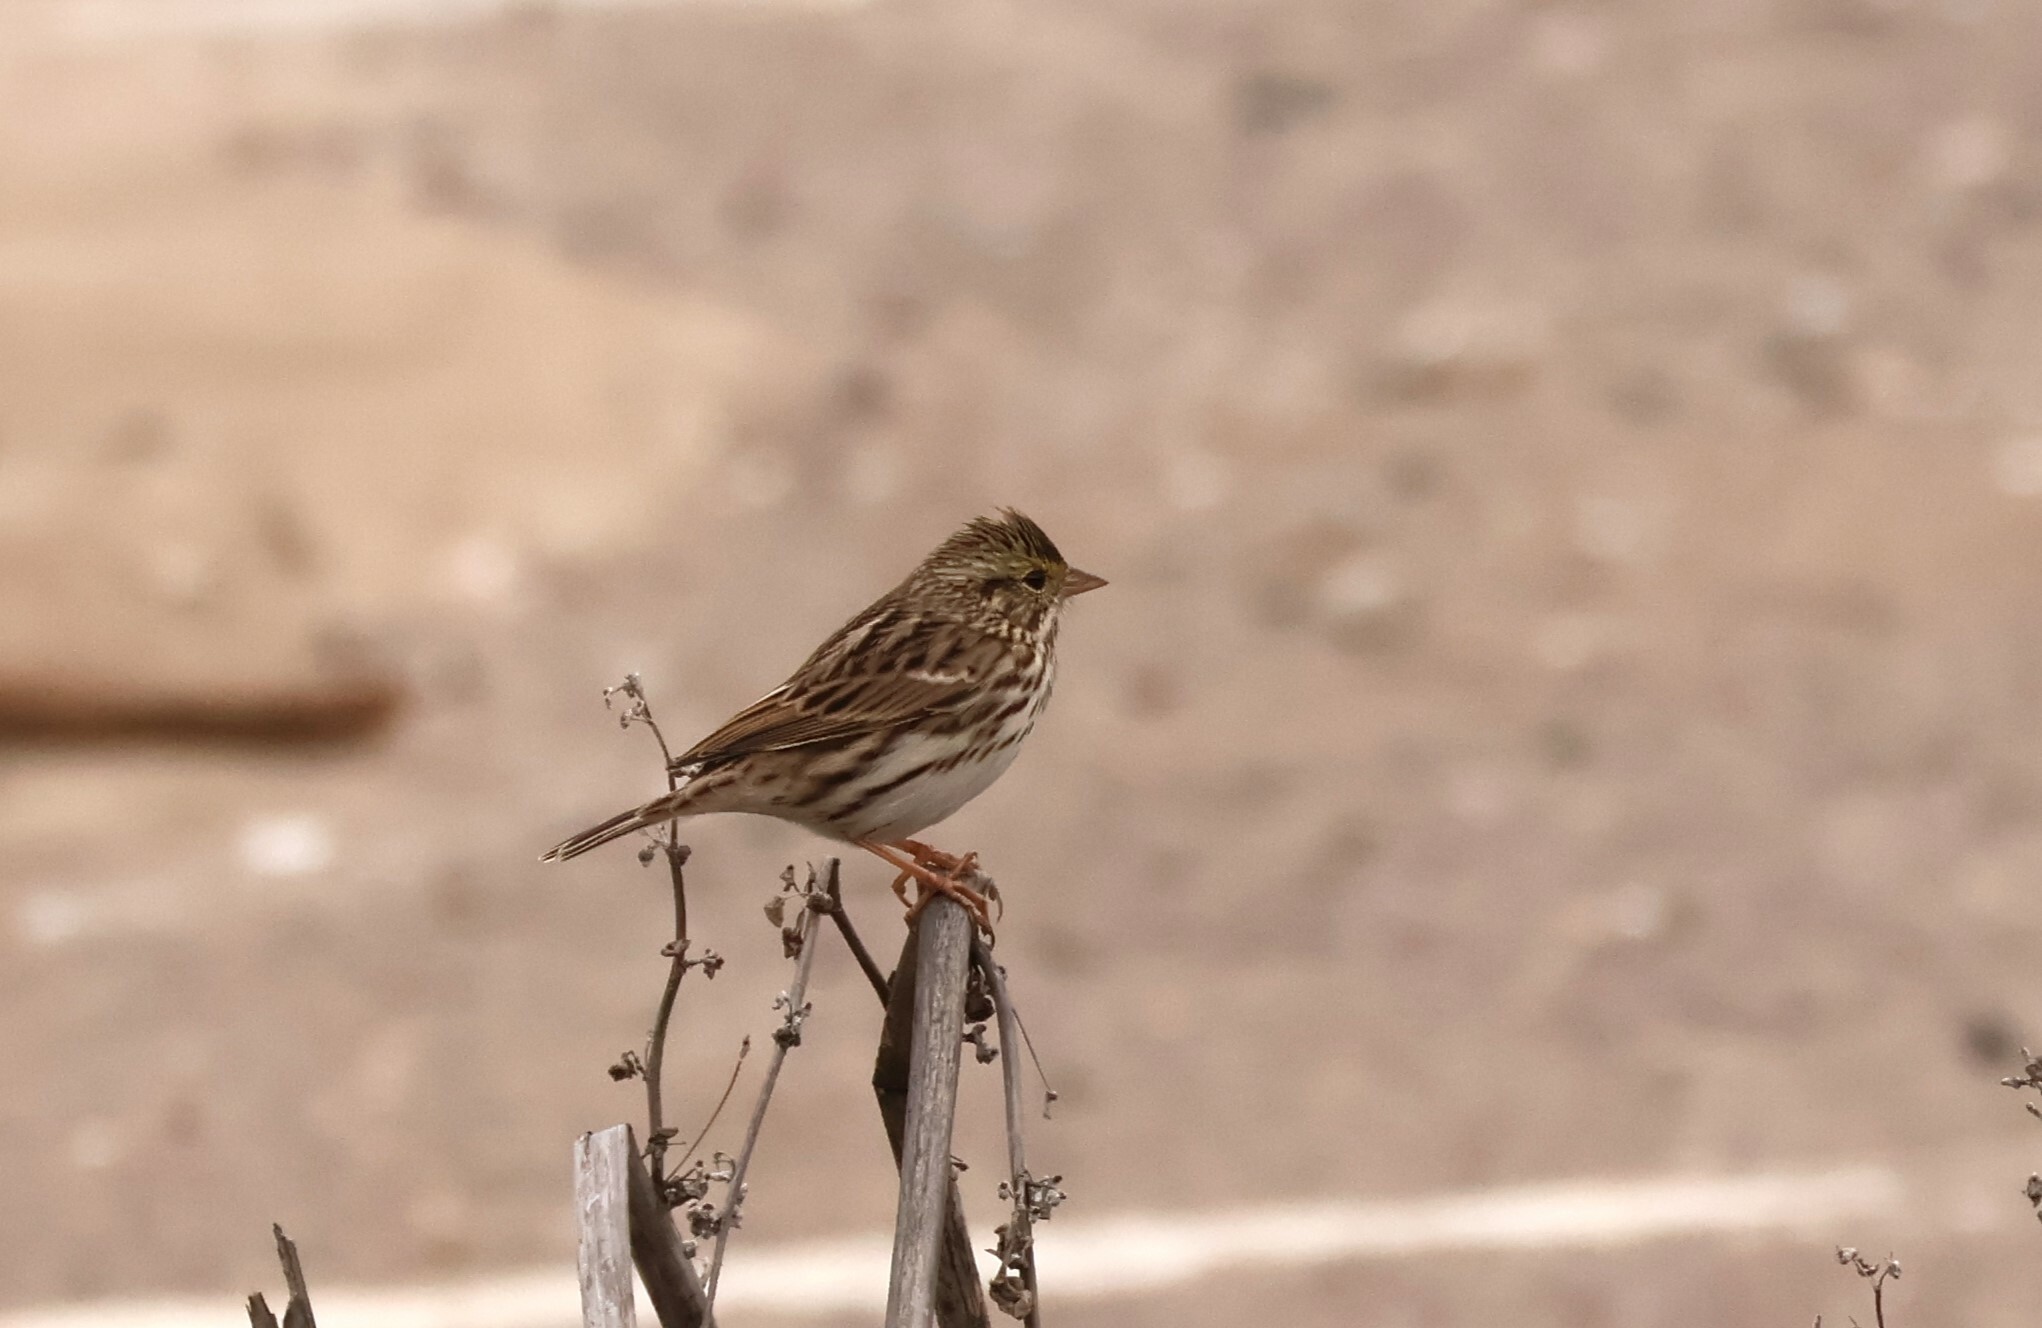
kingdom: Animalia
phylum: Chordata
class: Aves
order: Passeriformes
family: Passerellidae
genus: Passerculus
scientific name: Passerculus sandwichensis
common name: Savannah sparrow
